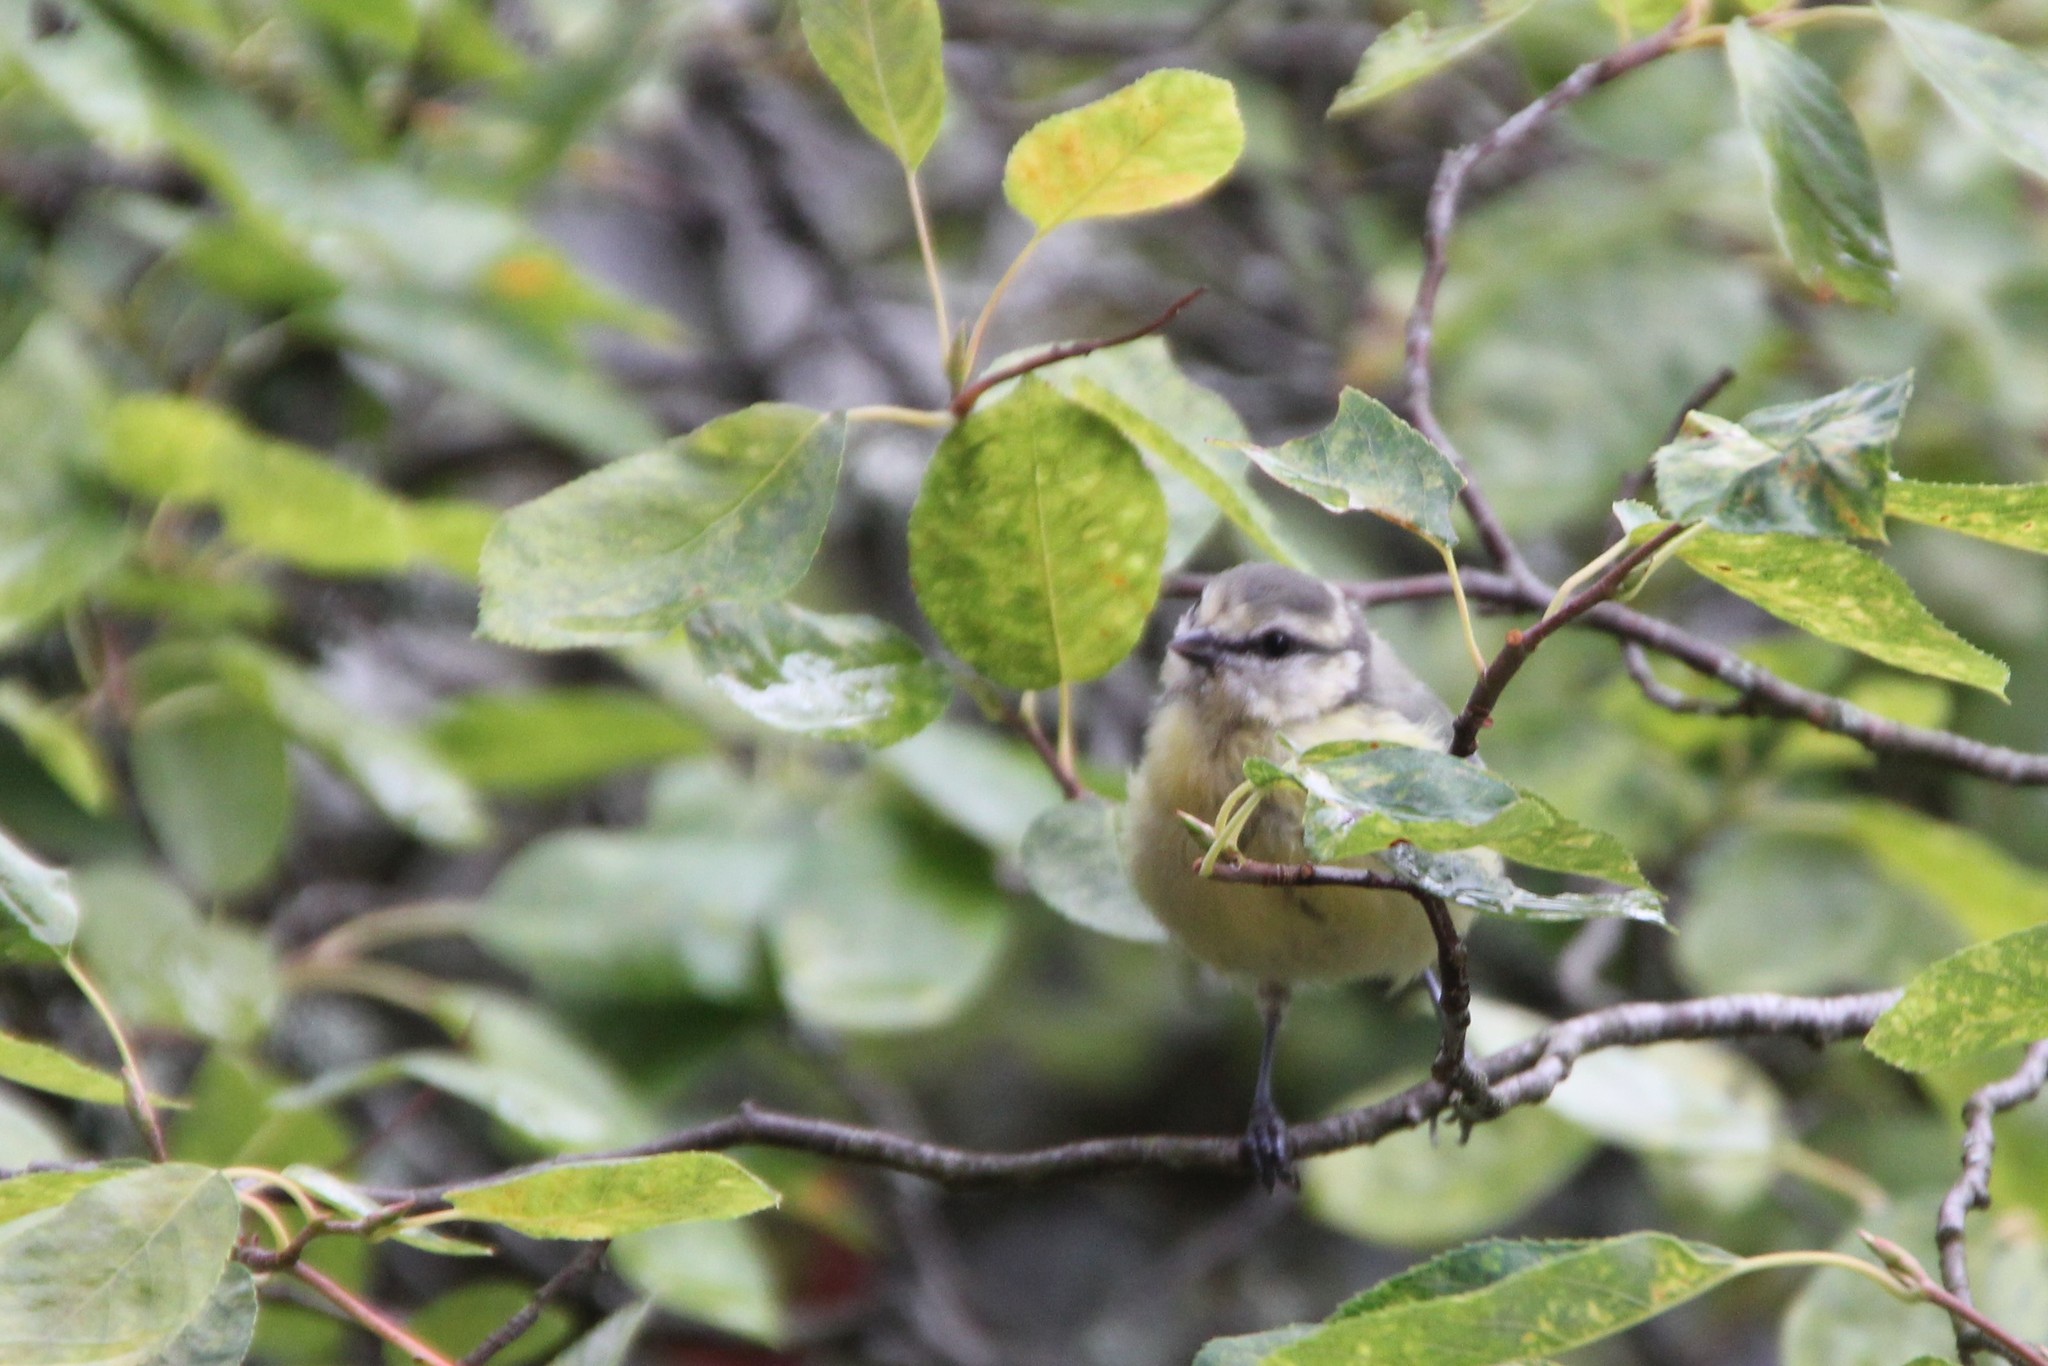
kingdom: Animalia
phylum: Chordata
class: Aves
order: Passeriformes
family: Paridae
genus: Cyanistes
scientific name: Cyanistes caeruleus
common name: Eurasian blue tit
